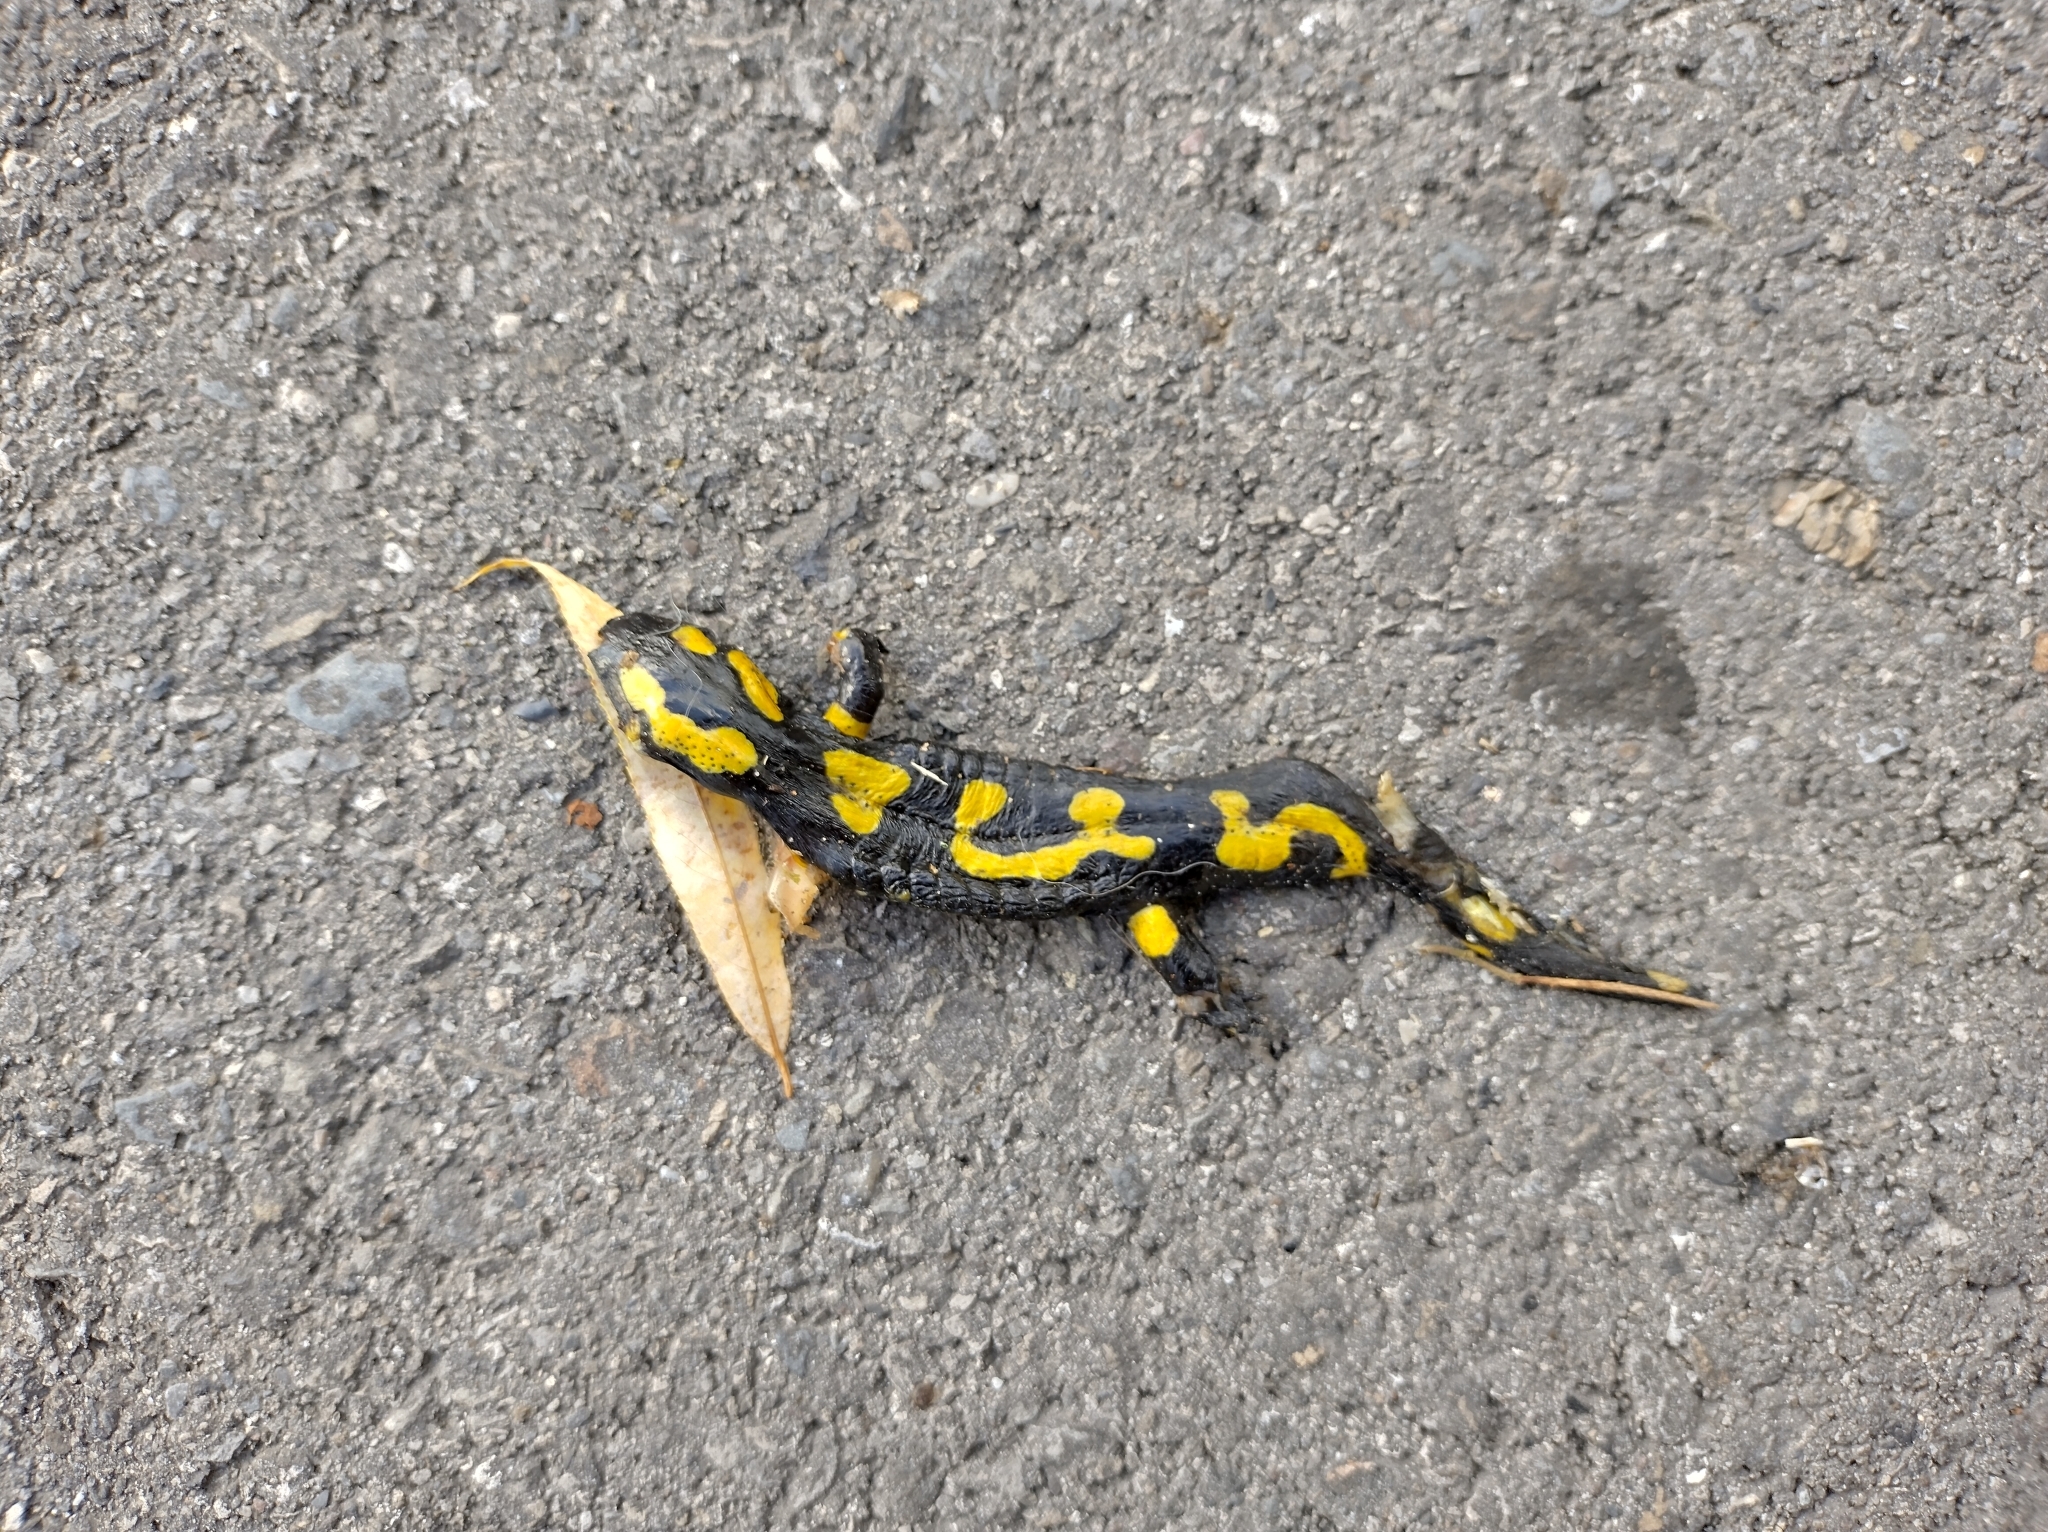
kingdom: Animalia
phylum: Chordata
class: Amphibia
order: Caudata
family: Salamandridae
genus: Salamandra
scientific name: Salamandra salamandra
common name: Fire salamander
